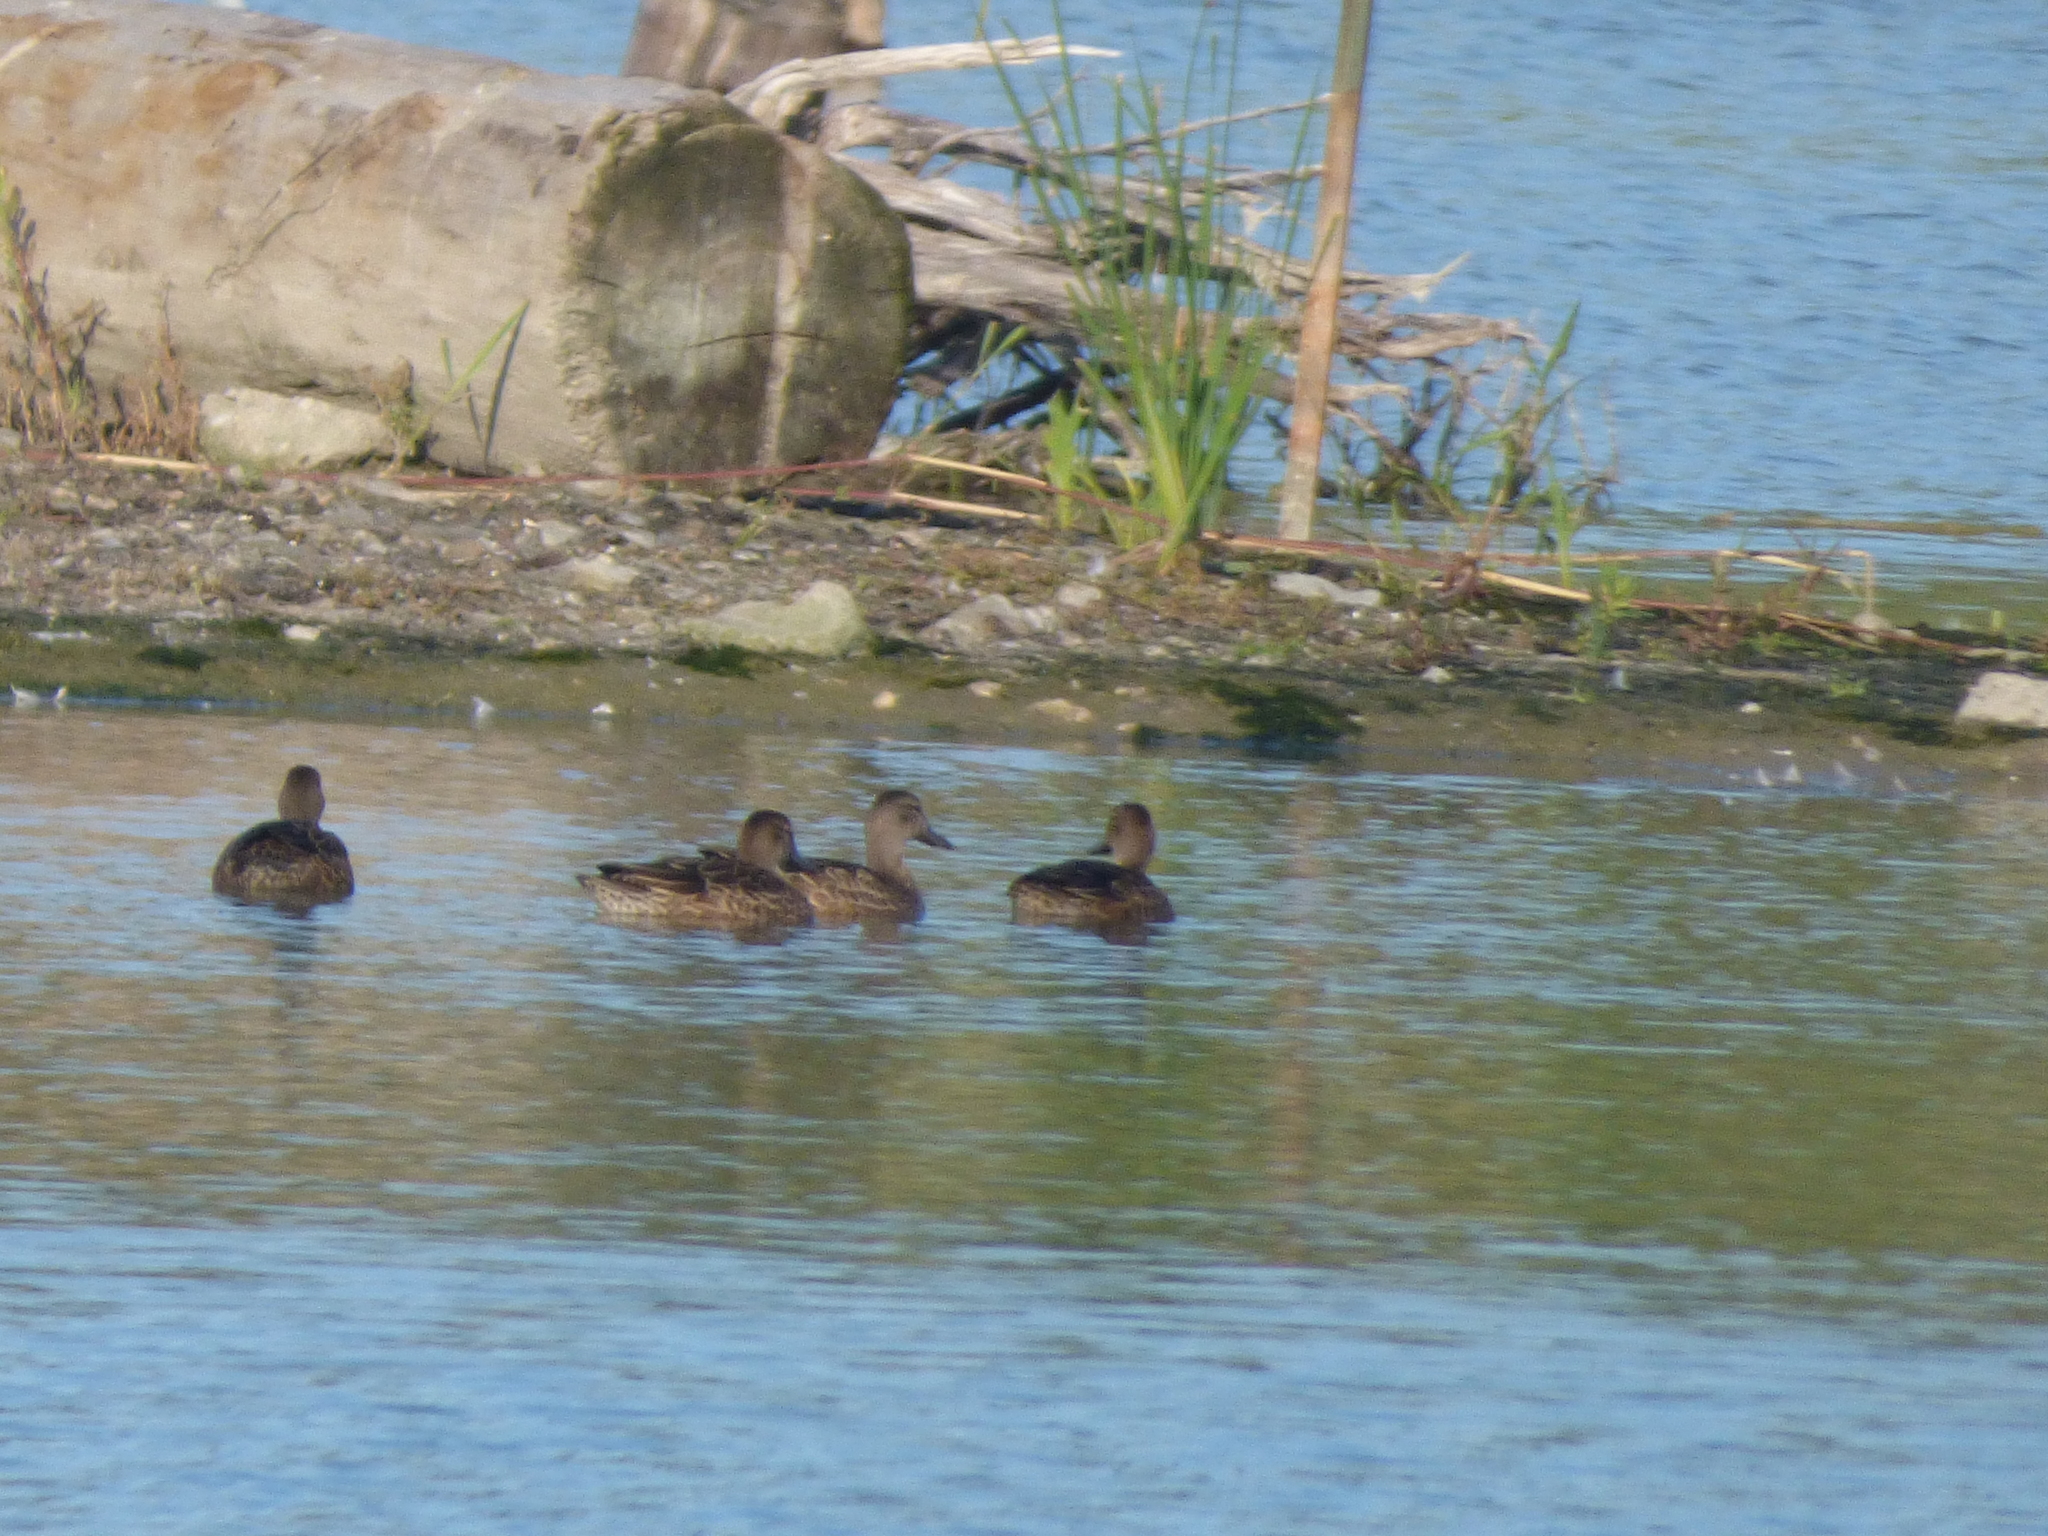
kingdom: Animalia
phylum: Chordata
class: Aves
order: Anseriformes
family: Anatidae
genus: Spatula
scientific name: Spatula discors
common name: Blue-winged teal
